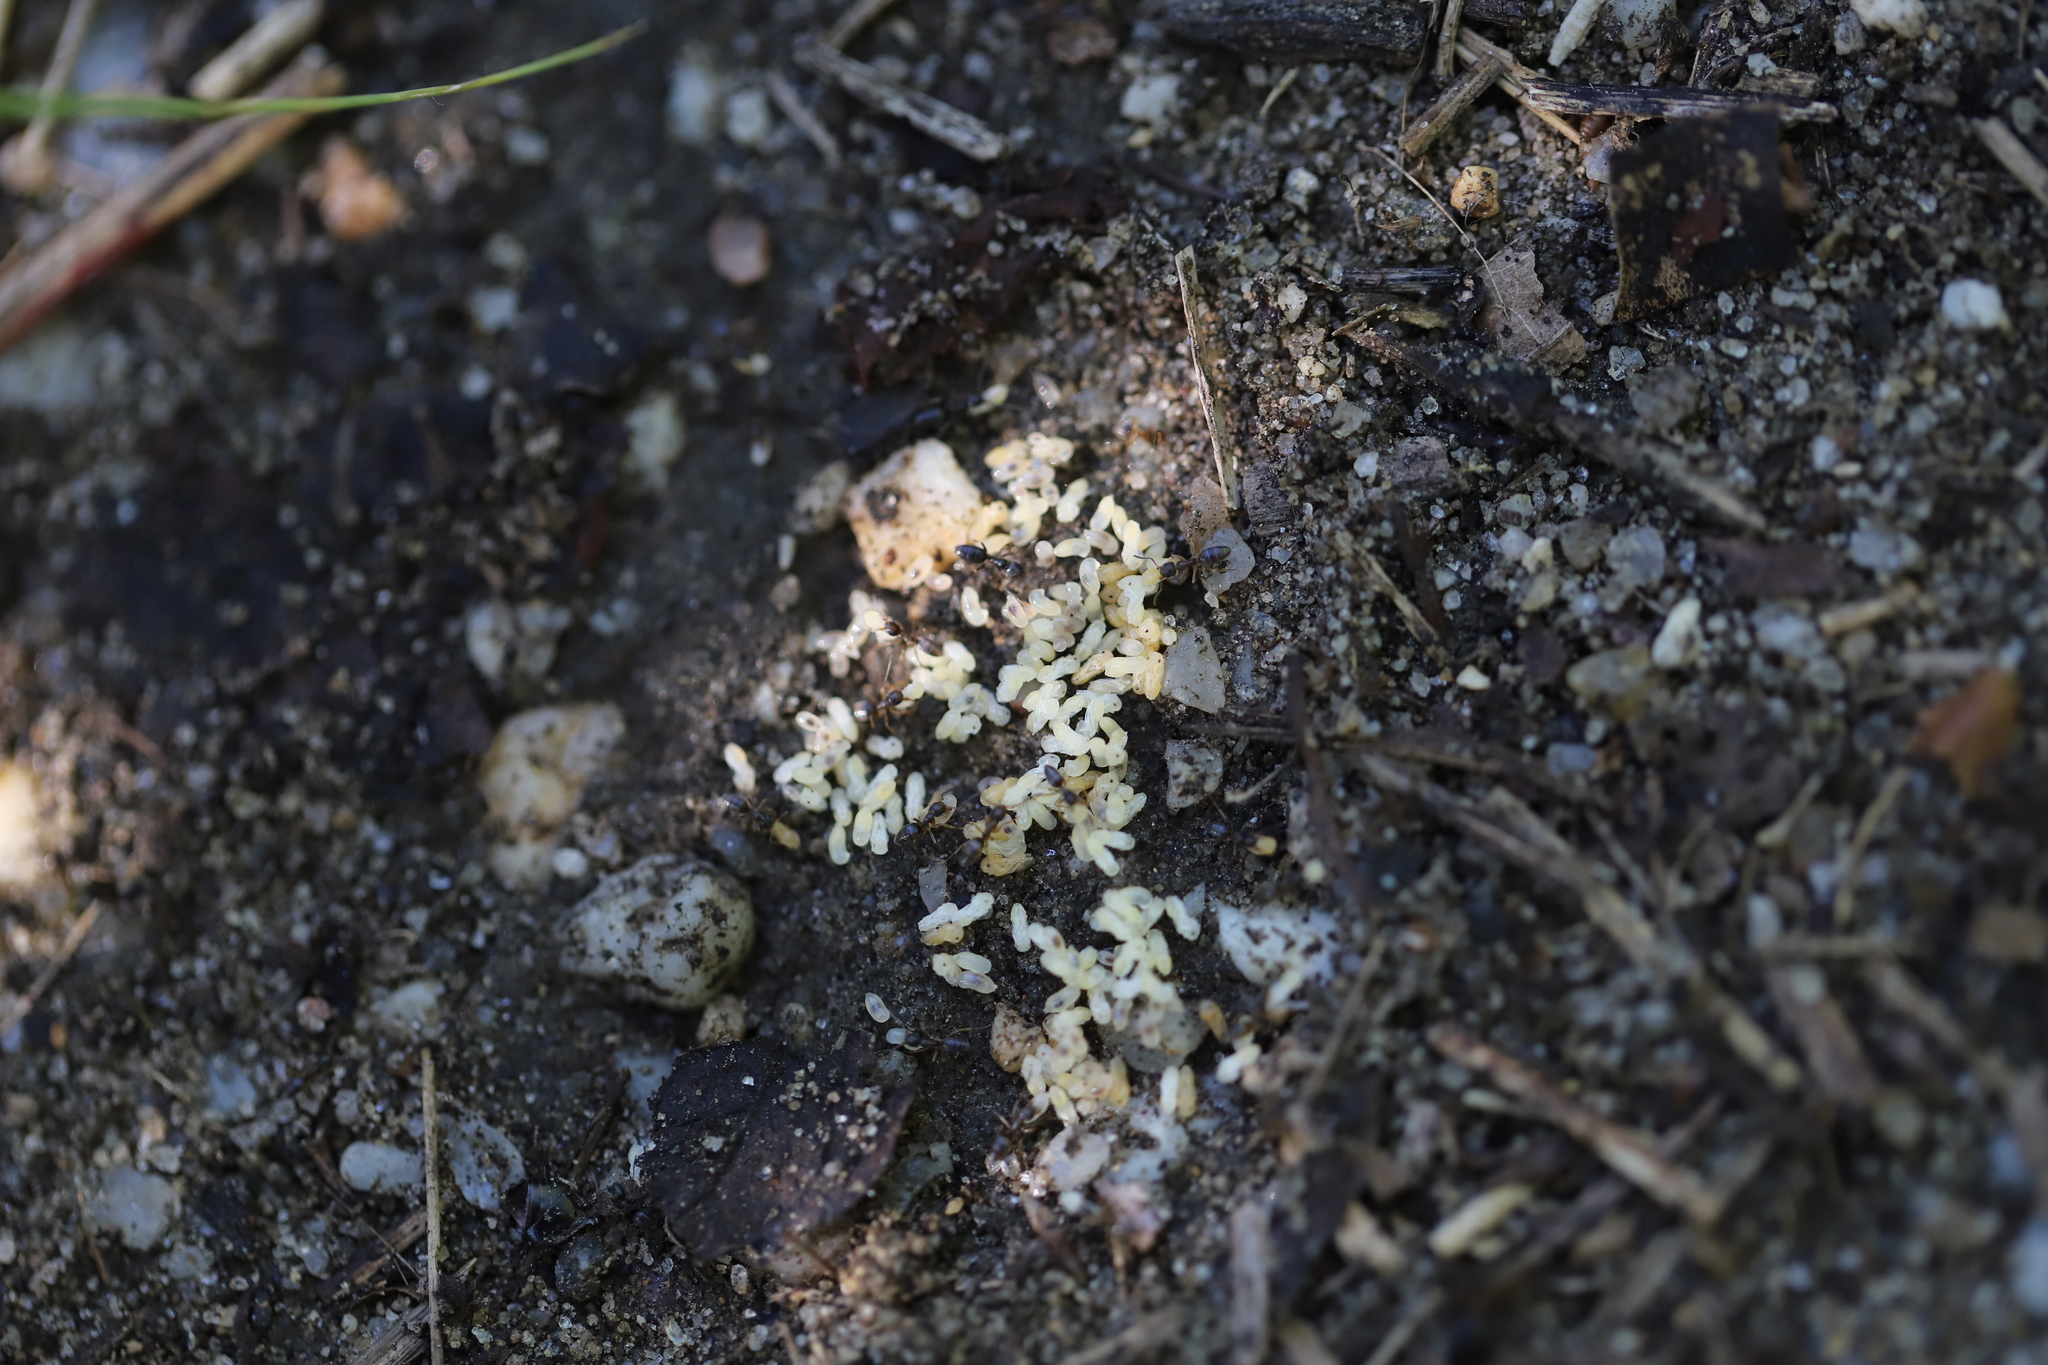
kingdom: Animalia
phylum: Arthropoda
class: Insecta
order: Hymenoptera
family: Formicidae
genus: Tapinoma
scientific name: Tapinoma sessile
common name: Odorous house ant
